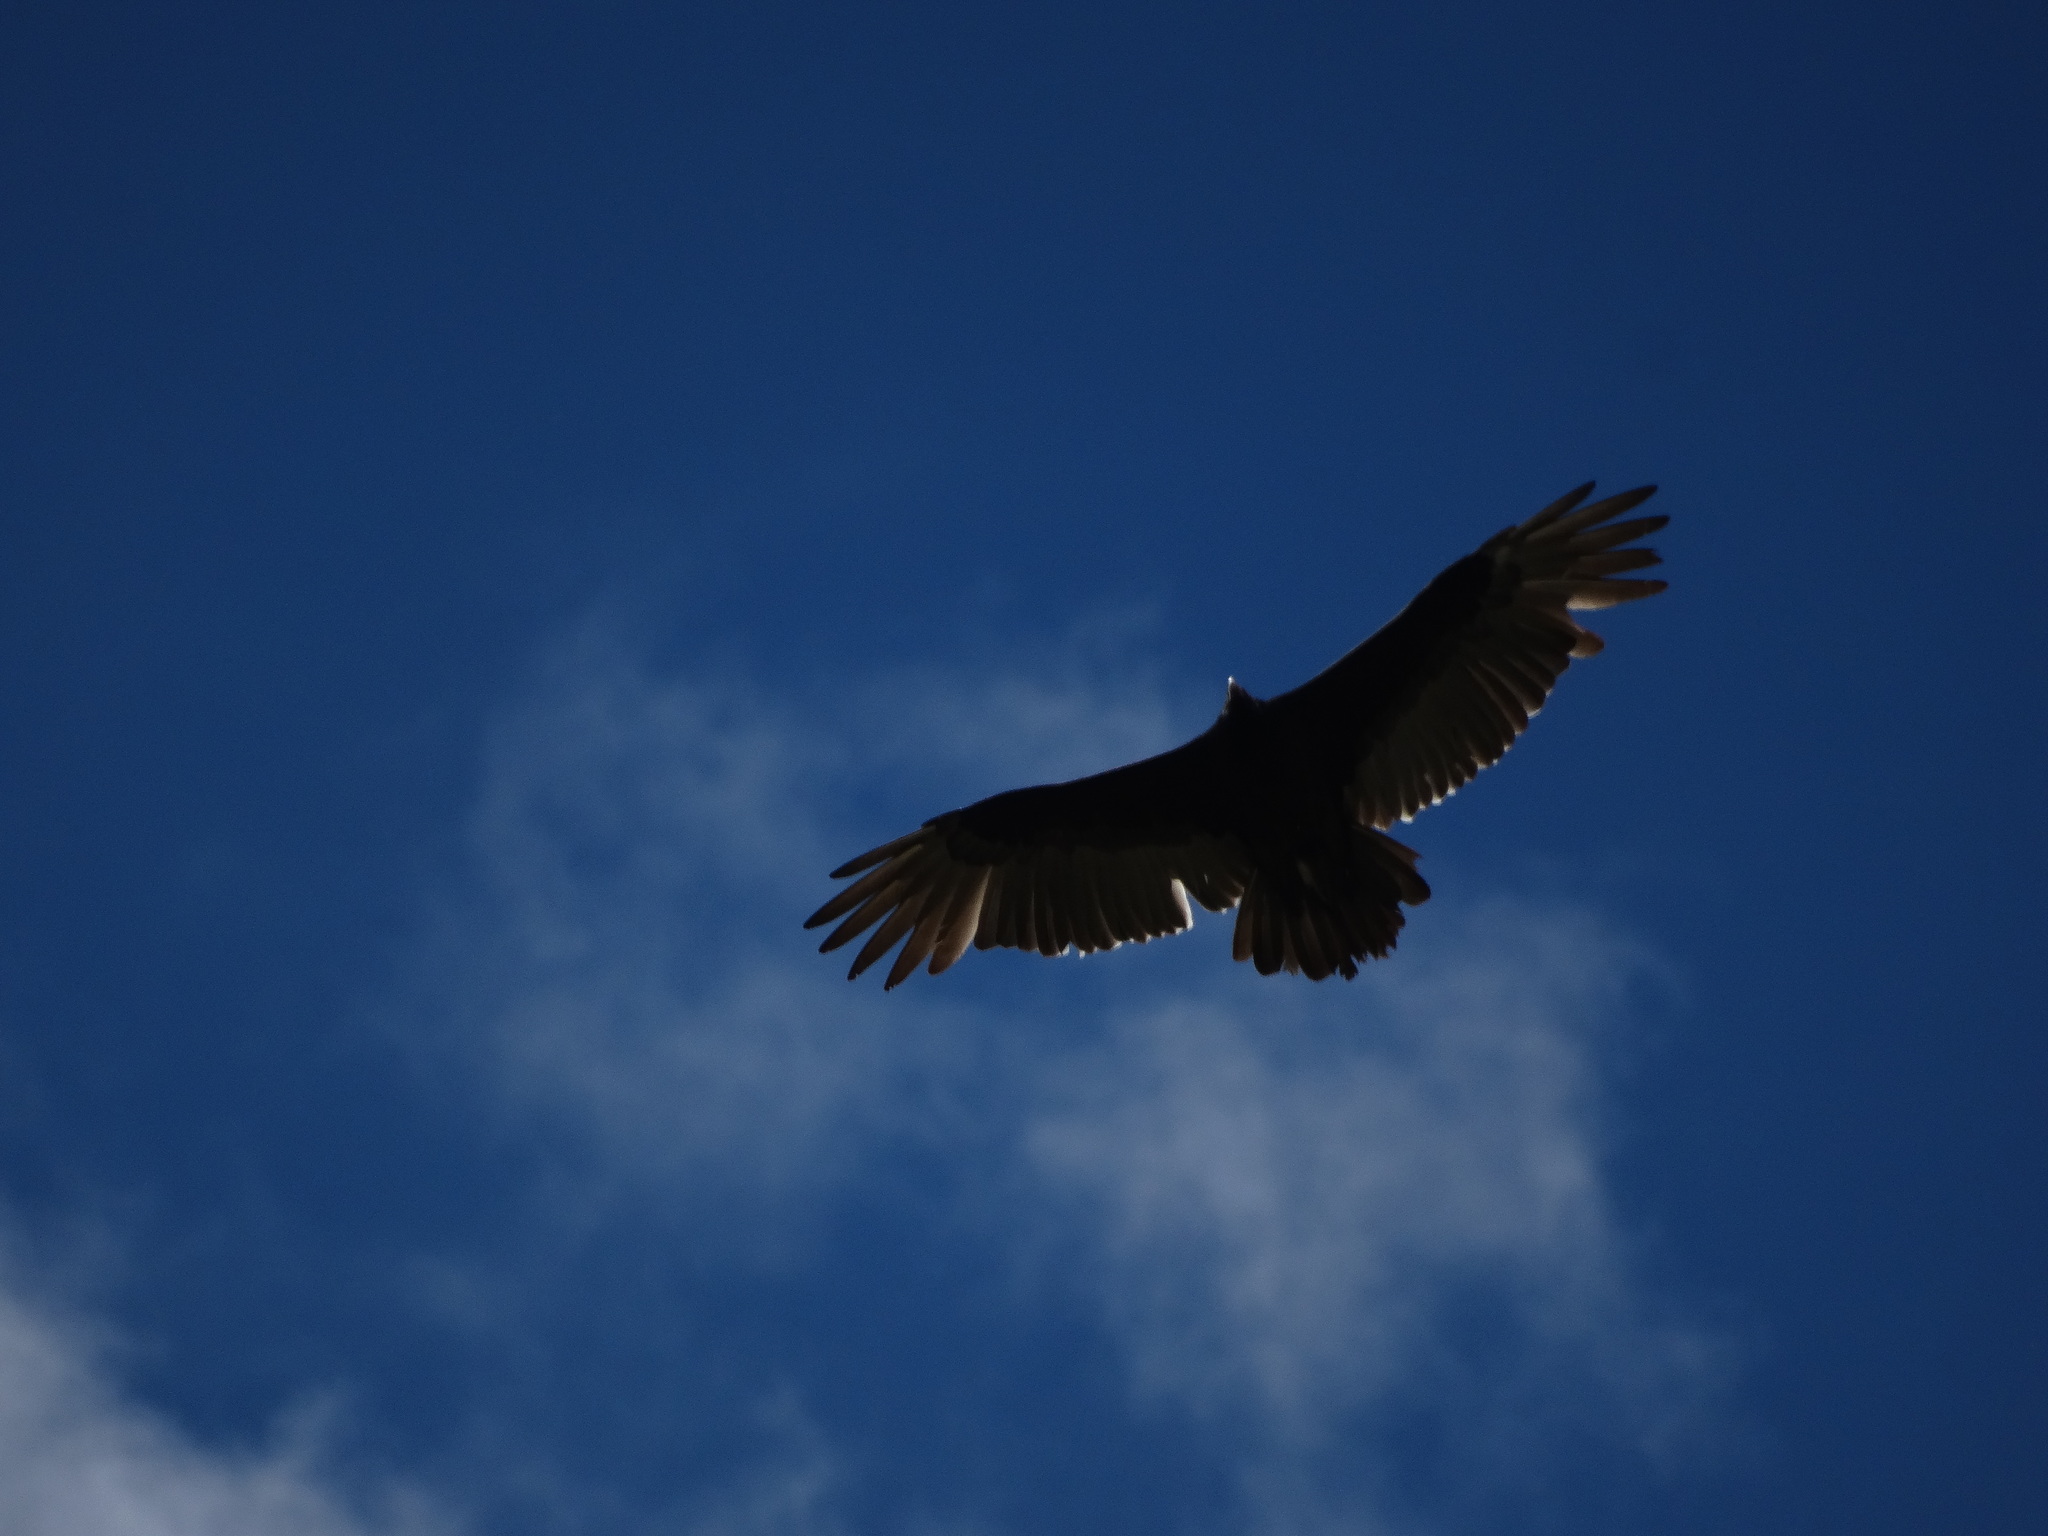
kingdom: Animalia
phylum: Chordata
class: Aves
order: Accipitriformes
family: Cathartidae
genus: Cathartes
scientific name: Cathartes aura
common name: Turkey vulture
